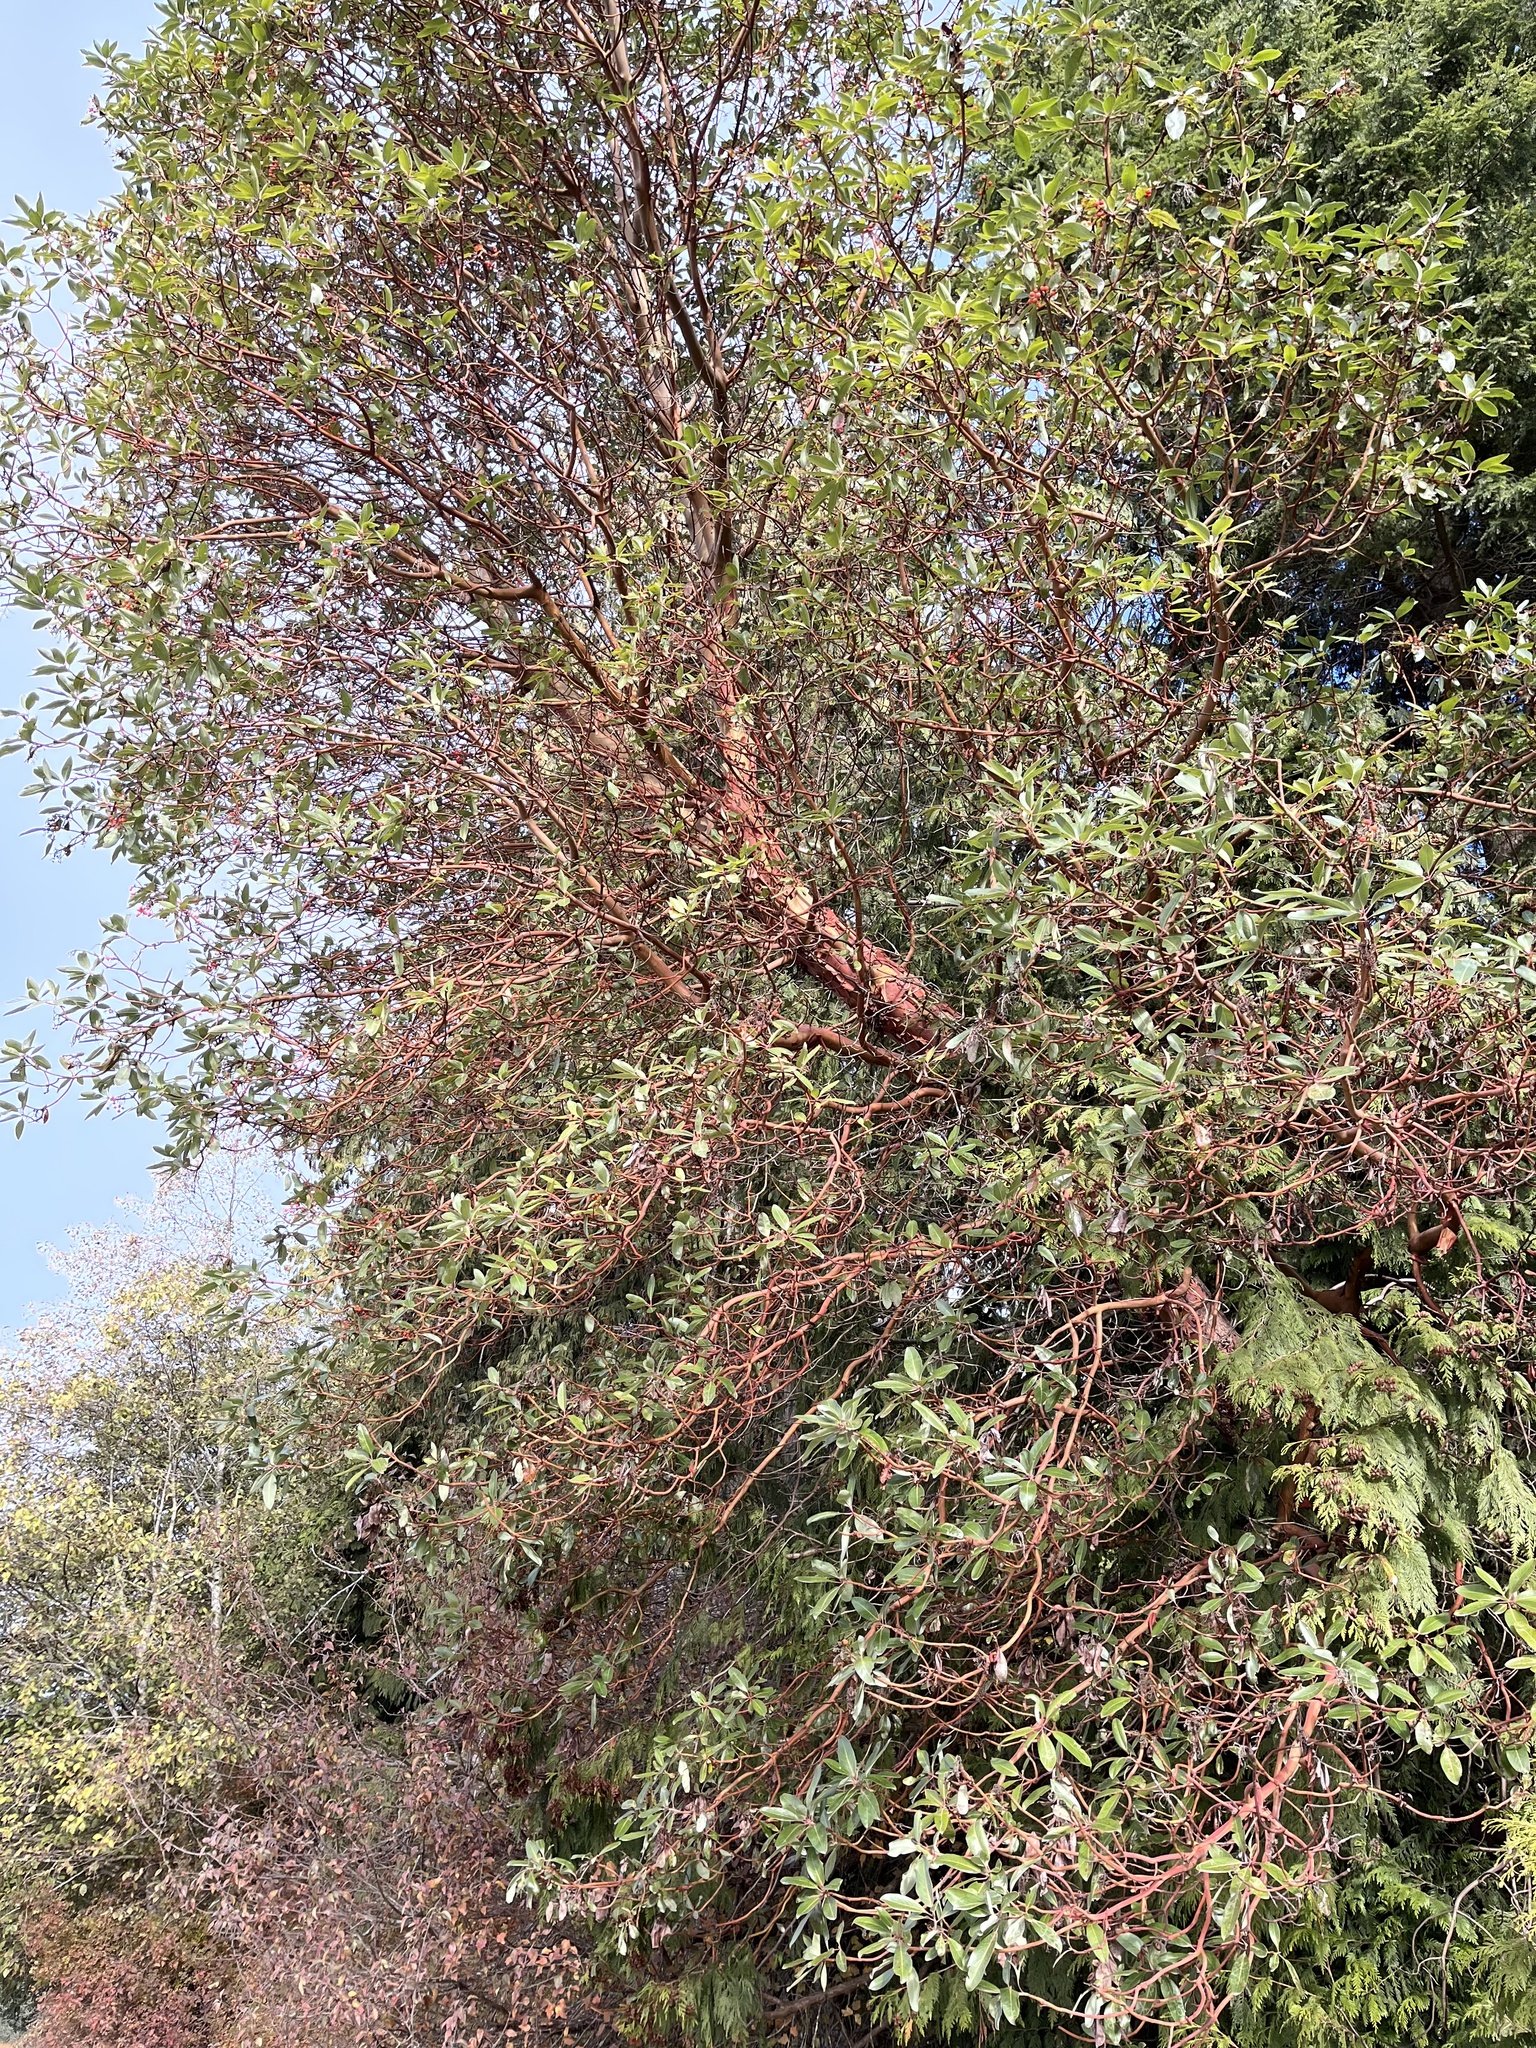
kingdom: Plantae
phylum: Tracheophyta
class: Magnoliopsida
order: Ericales
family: Ericaceae
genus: Arbutus
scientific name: Arbutus menziesii
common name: Pacific madrone
